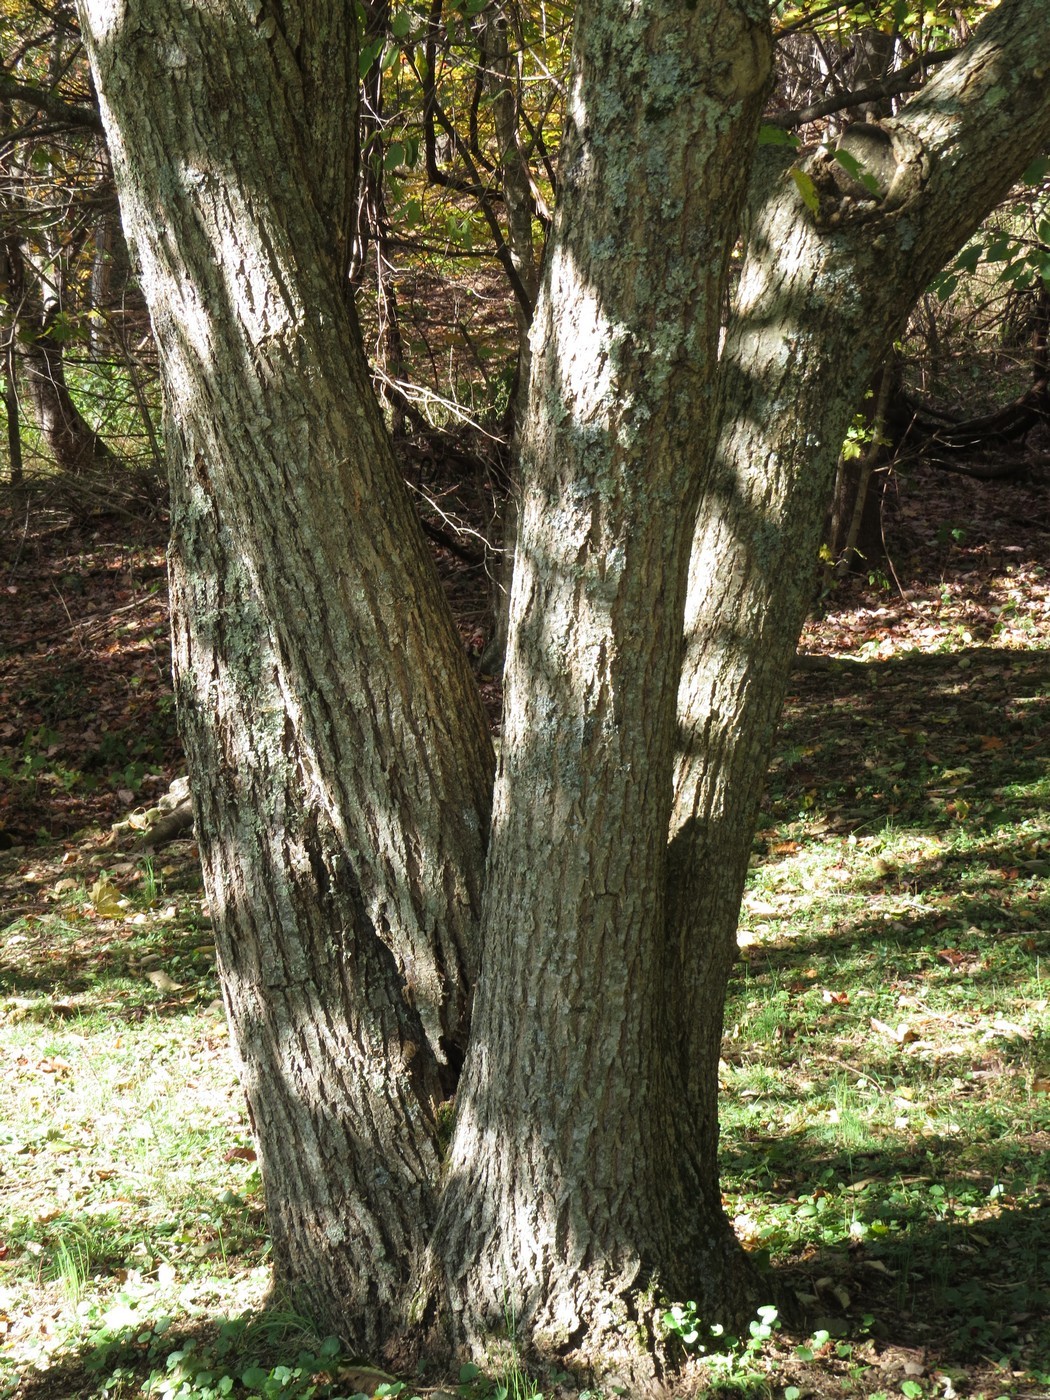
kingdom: Plantae
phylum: Tracheophyta
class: Magnoliopsida
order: Fagales
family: Fagaceae
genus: Castanea
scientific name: Castanea mollissima
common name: Chinese chestnut
